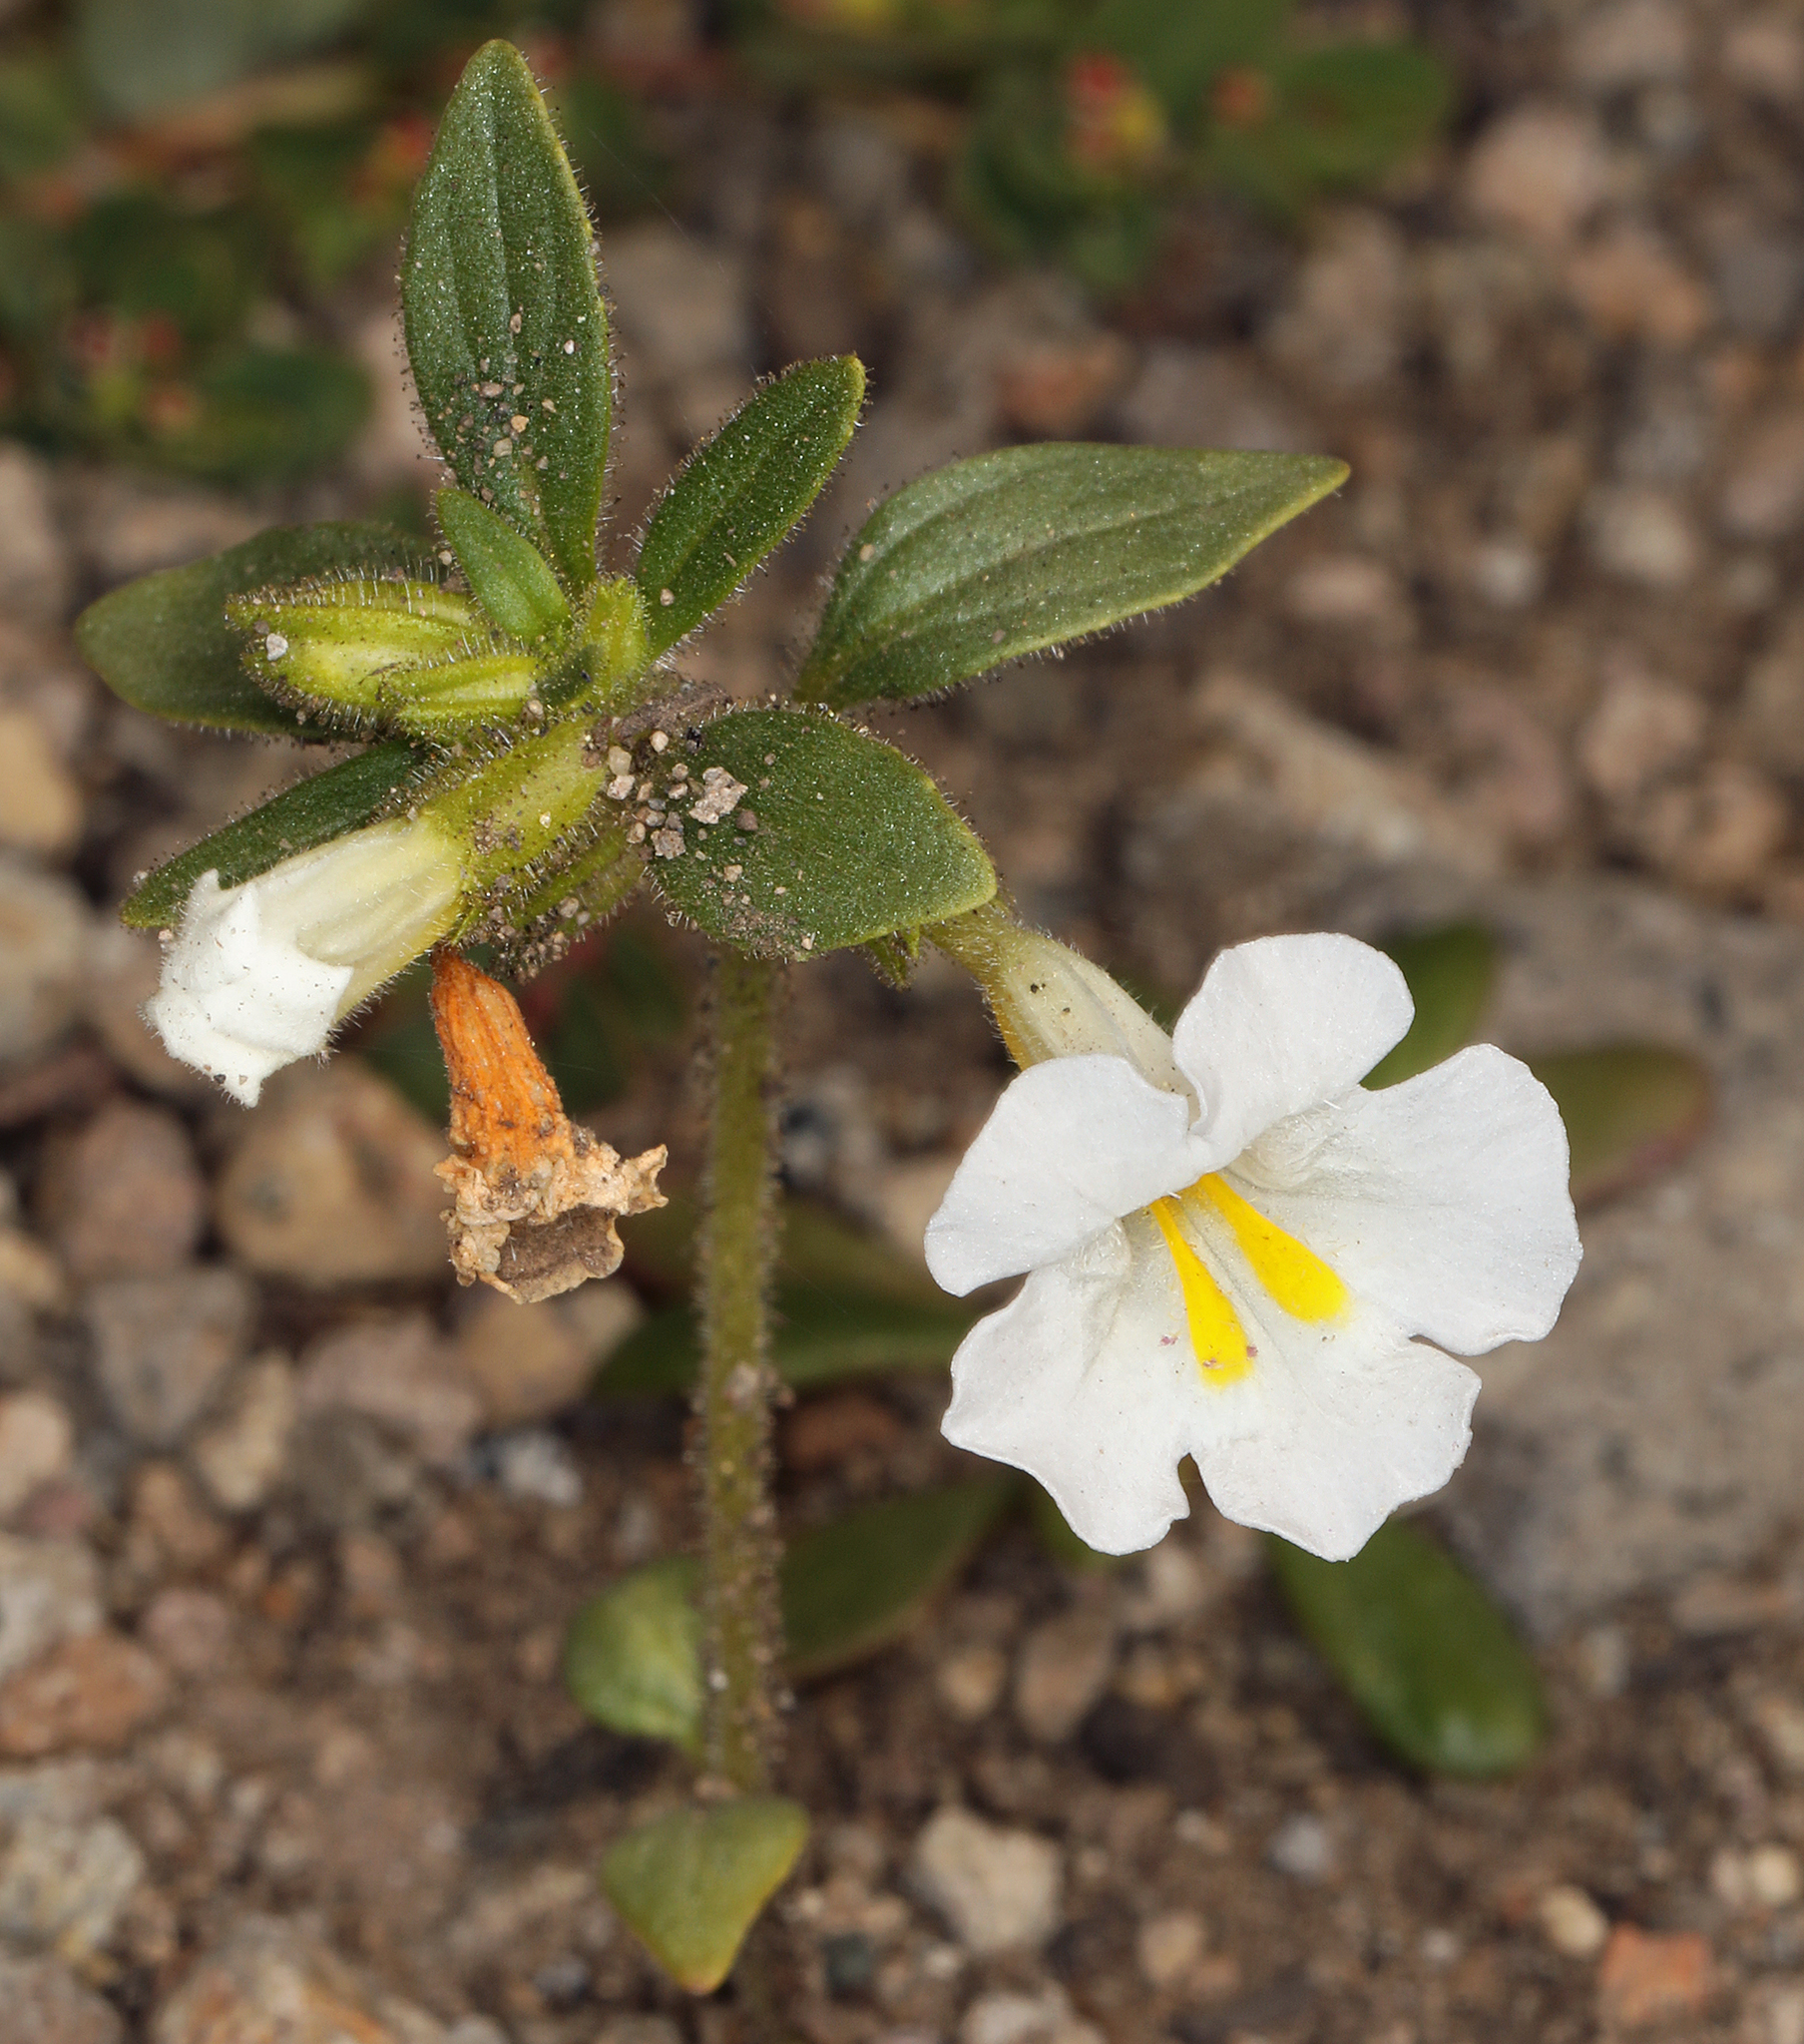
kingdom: Plantae
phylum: Tracheophyta
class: Magnoliopsida
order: Lamiales
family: Phrymaceae
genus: Diplacus
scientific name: Diplacus torreyi
